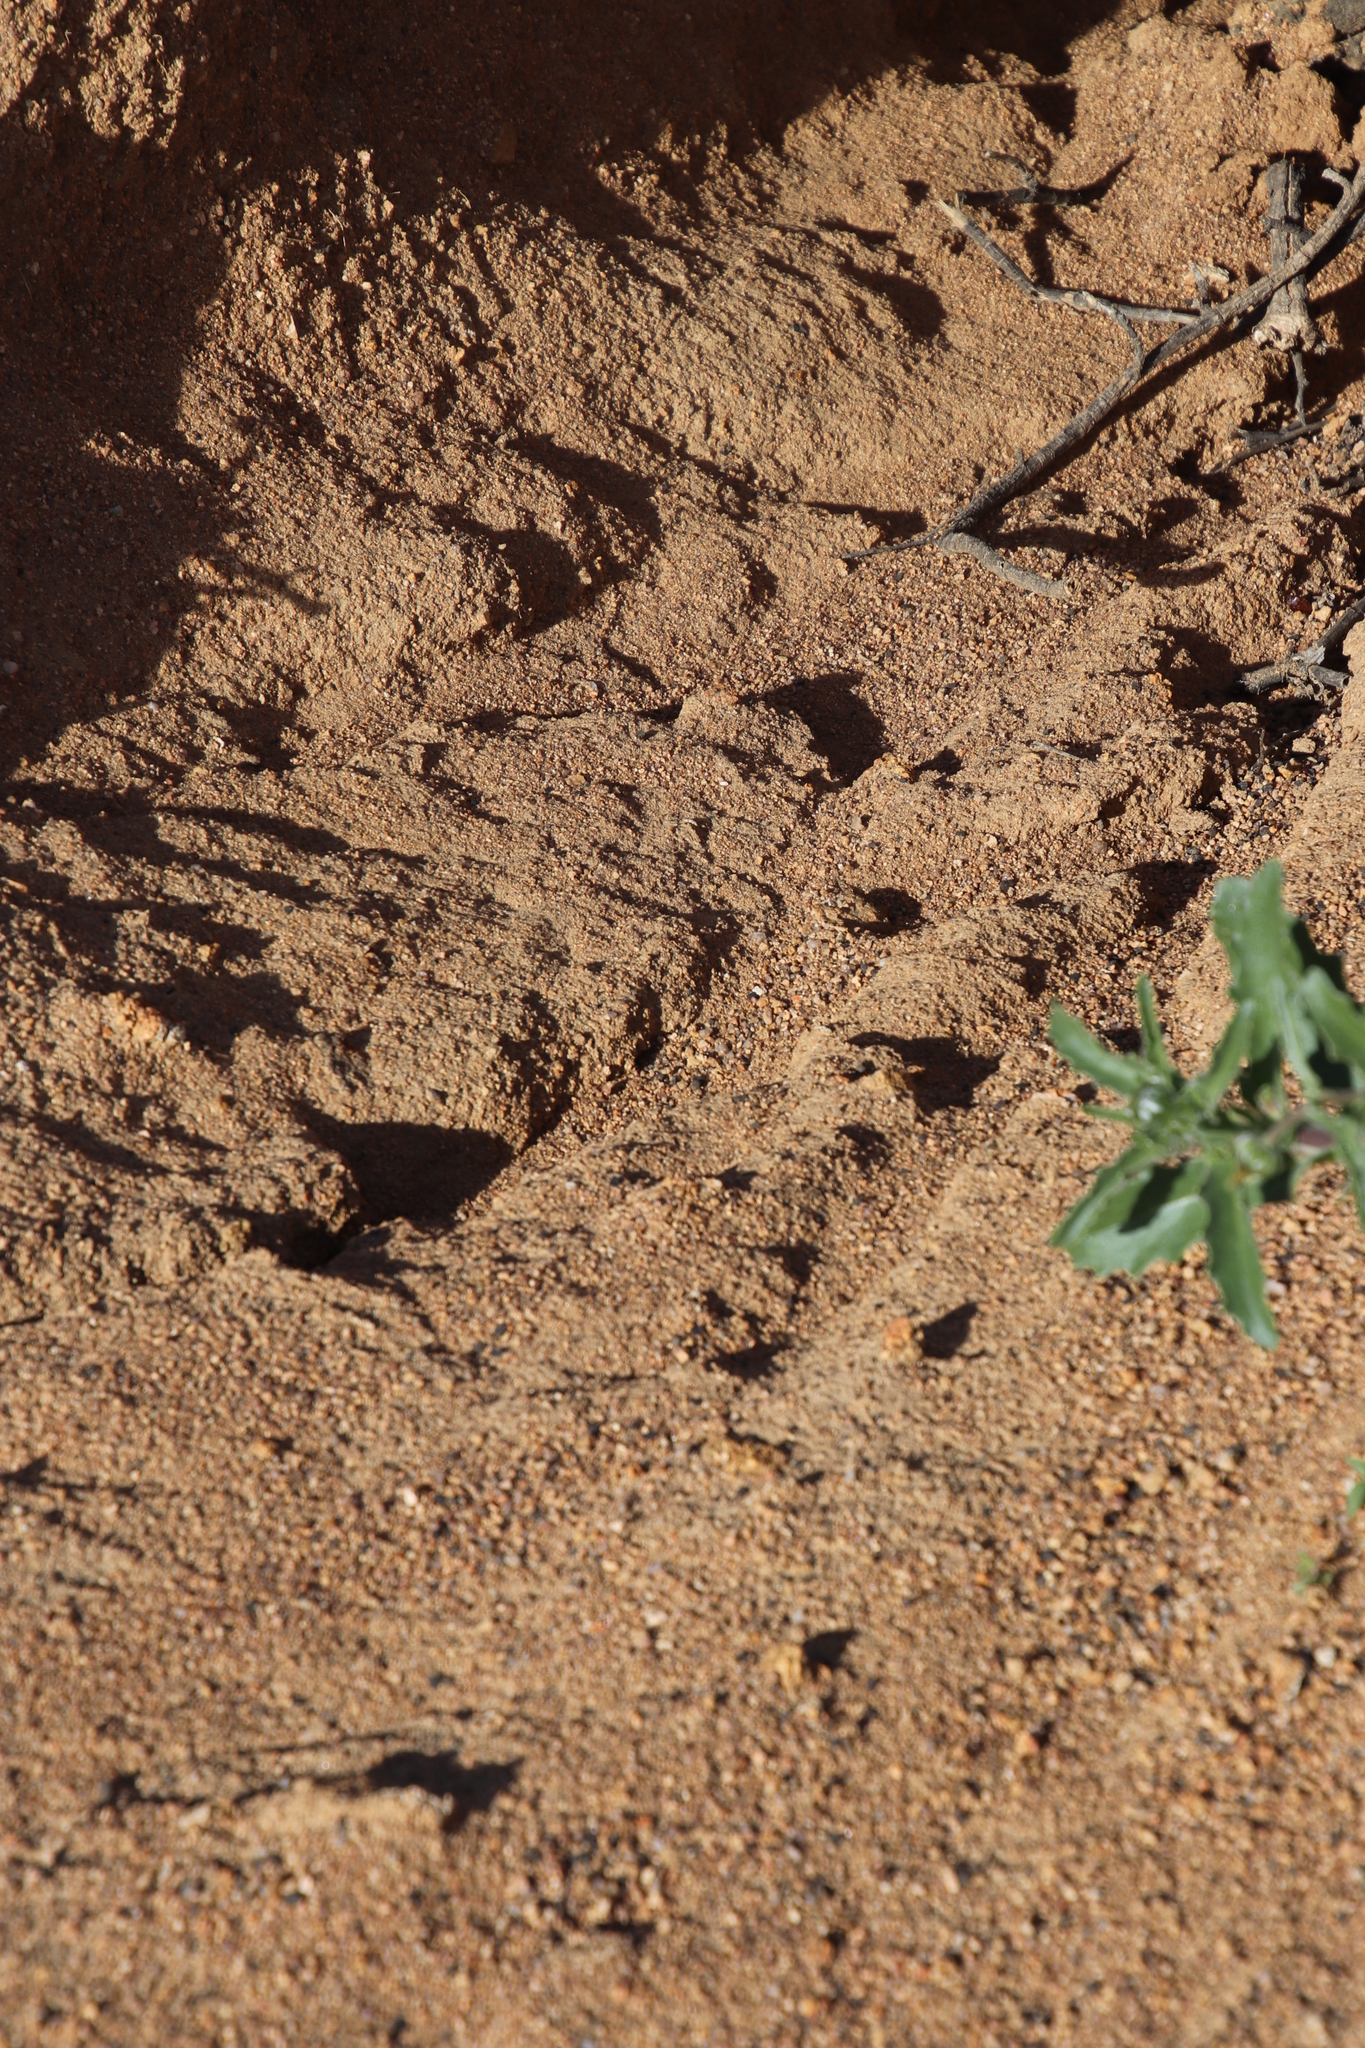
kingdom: Animalia
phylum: Chordata
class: Mammalia
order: Tubulidentata
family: Orycteropodidae
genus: Orycteropus
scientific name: Orycteropus afer
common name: Aardvark
